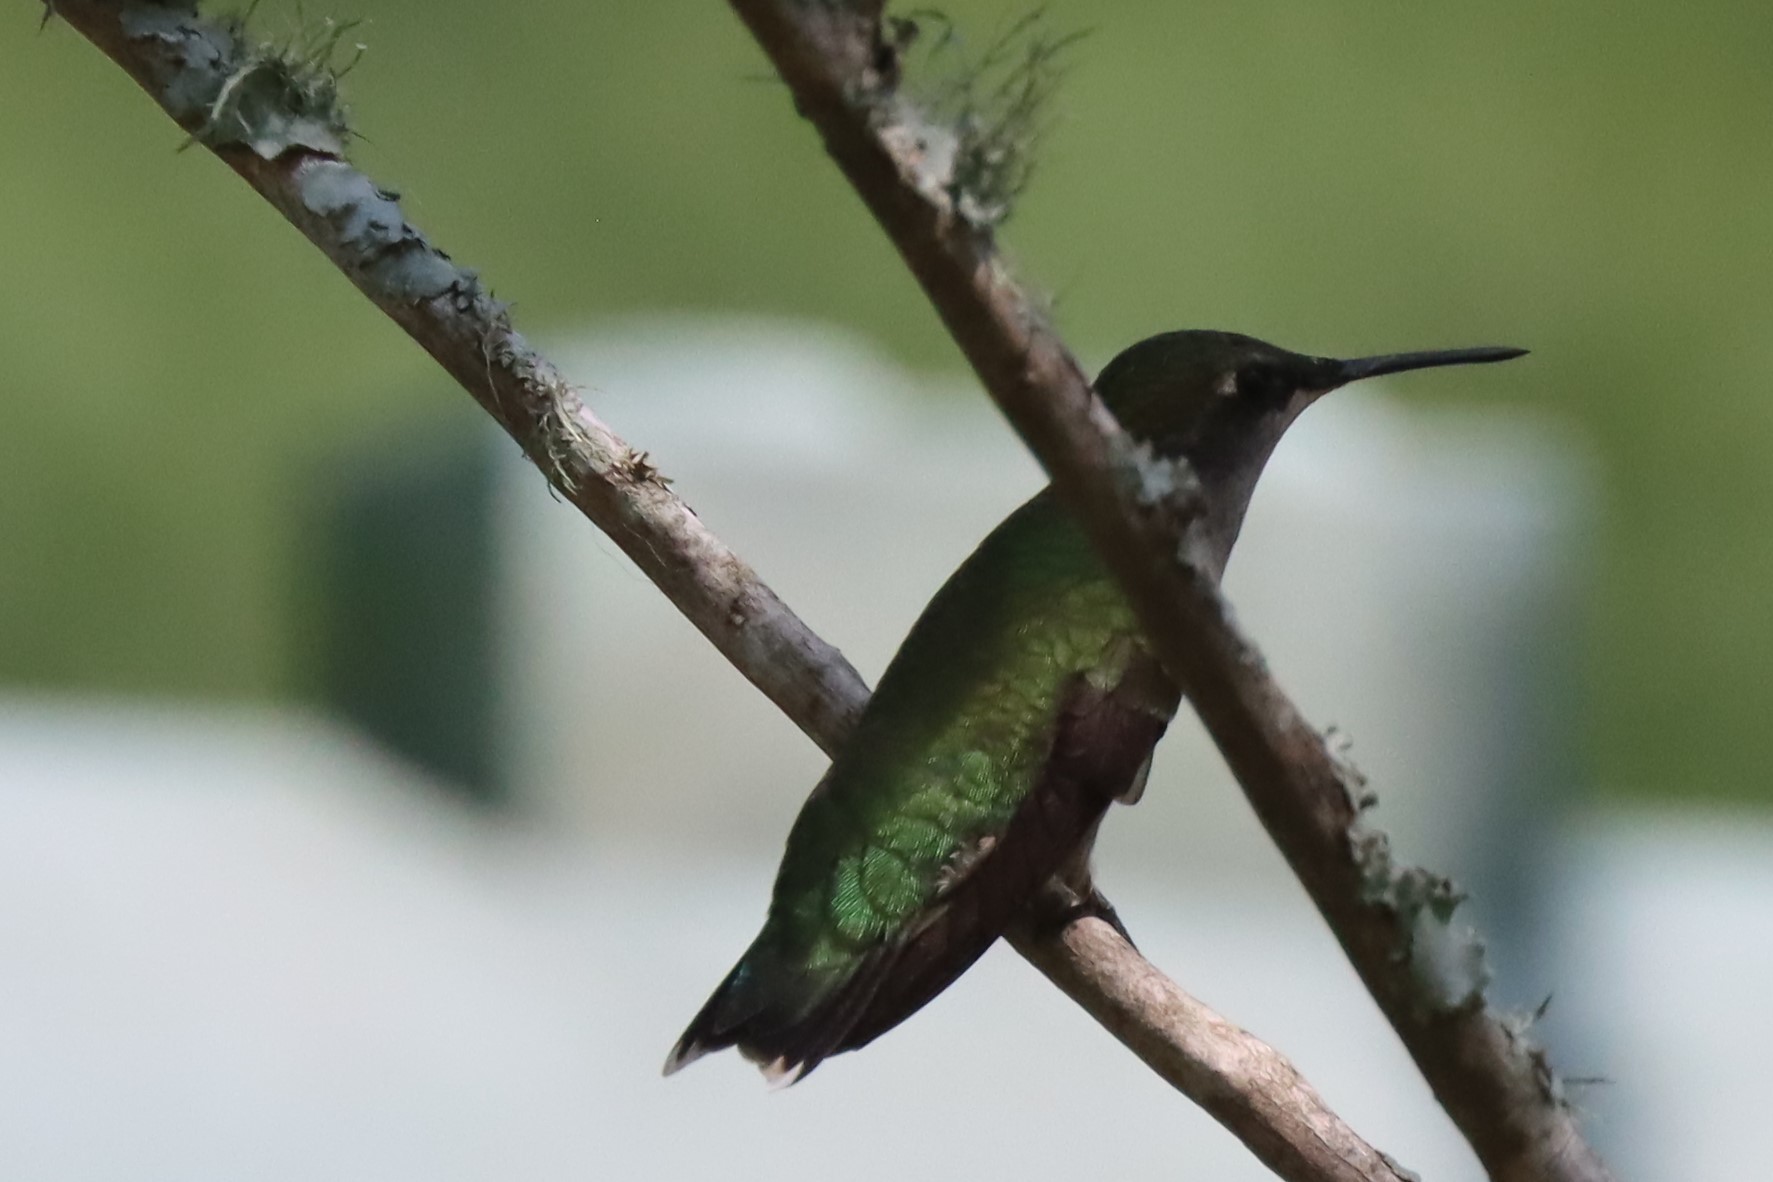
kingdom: Animalia
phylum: Chordata
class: Aves
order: Apodiformes
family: Trochilidae
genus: Archilochus
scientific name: Archilochus colubris
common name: Ruby-throated hummingbird
